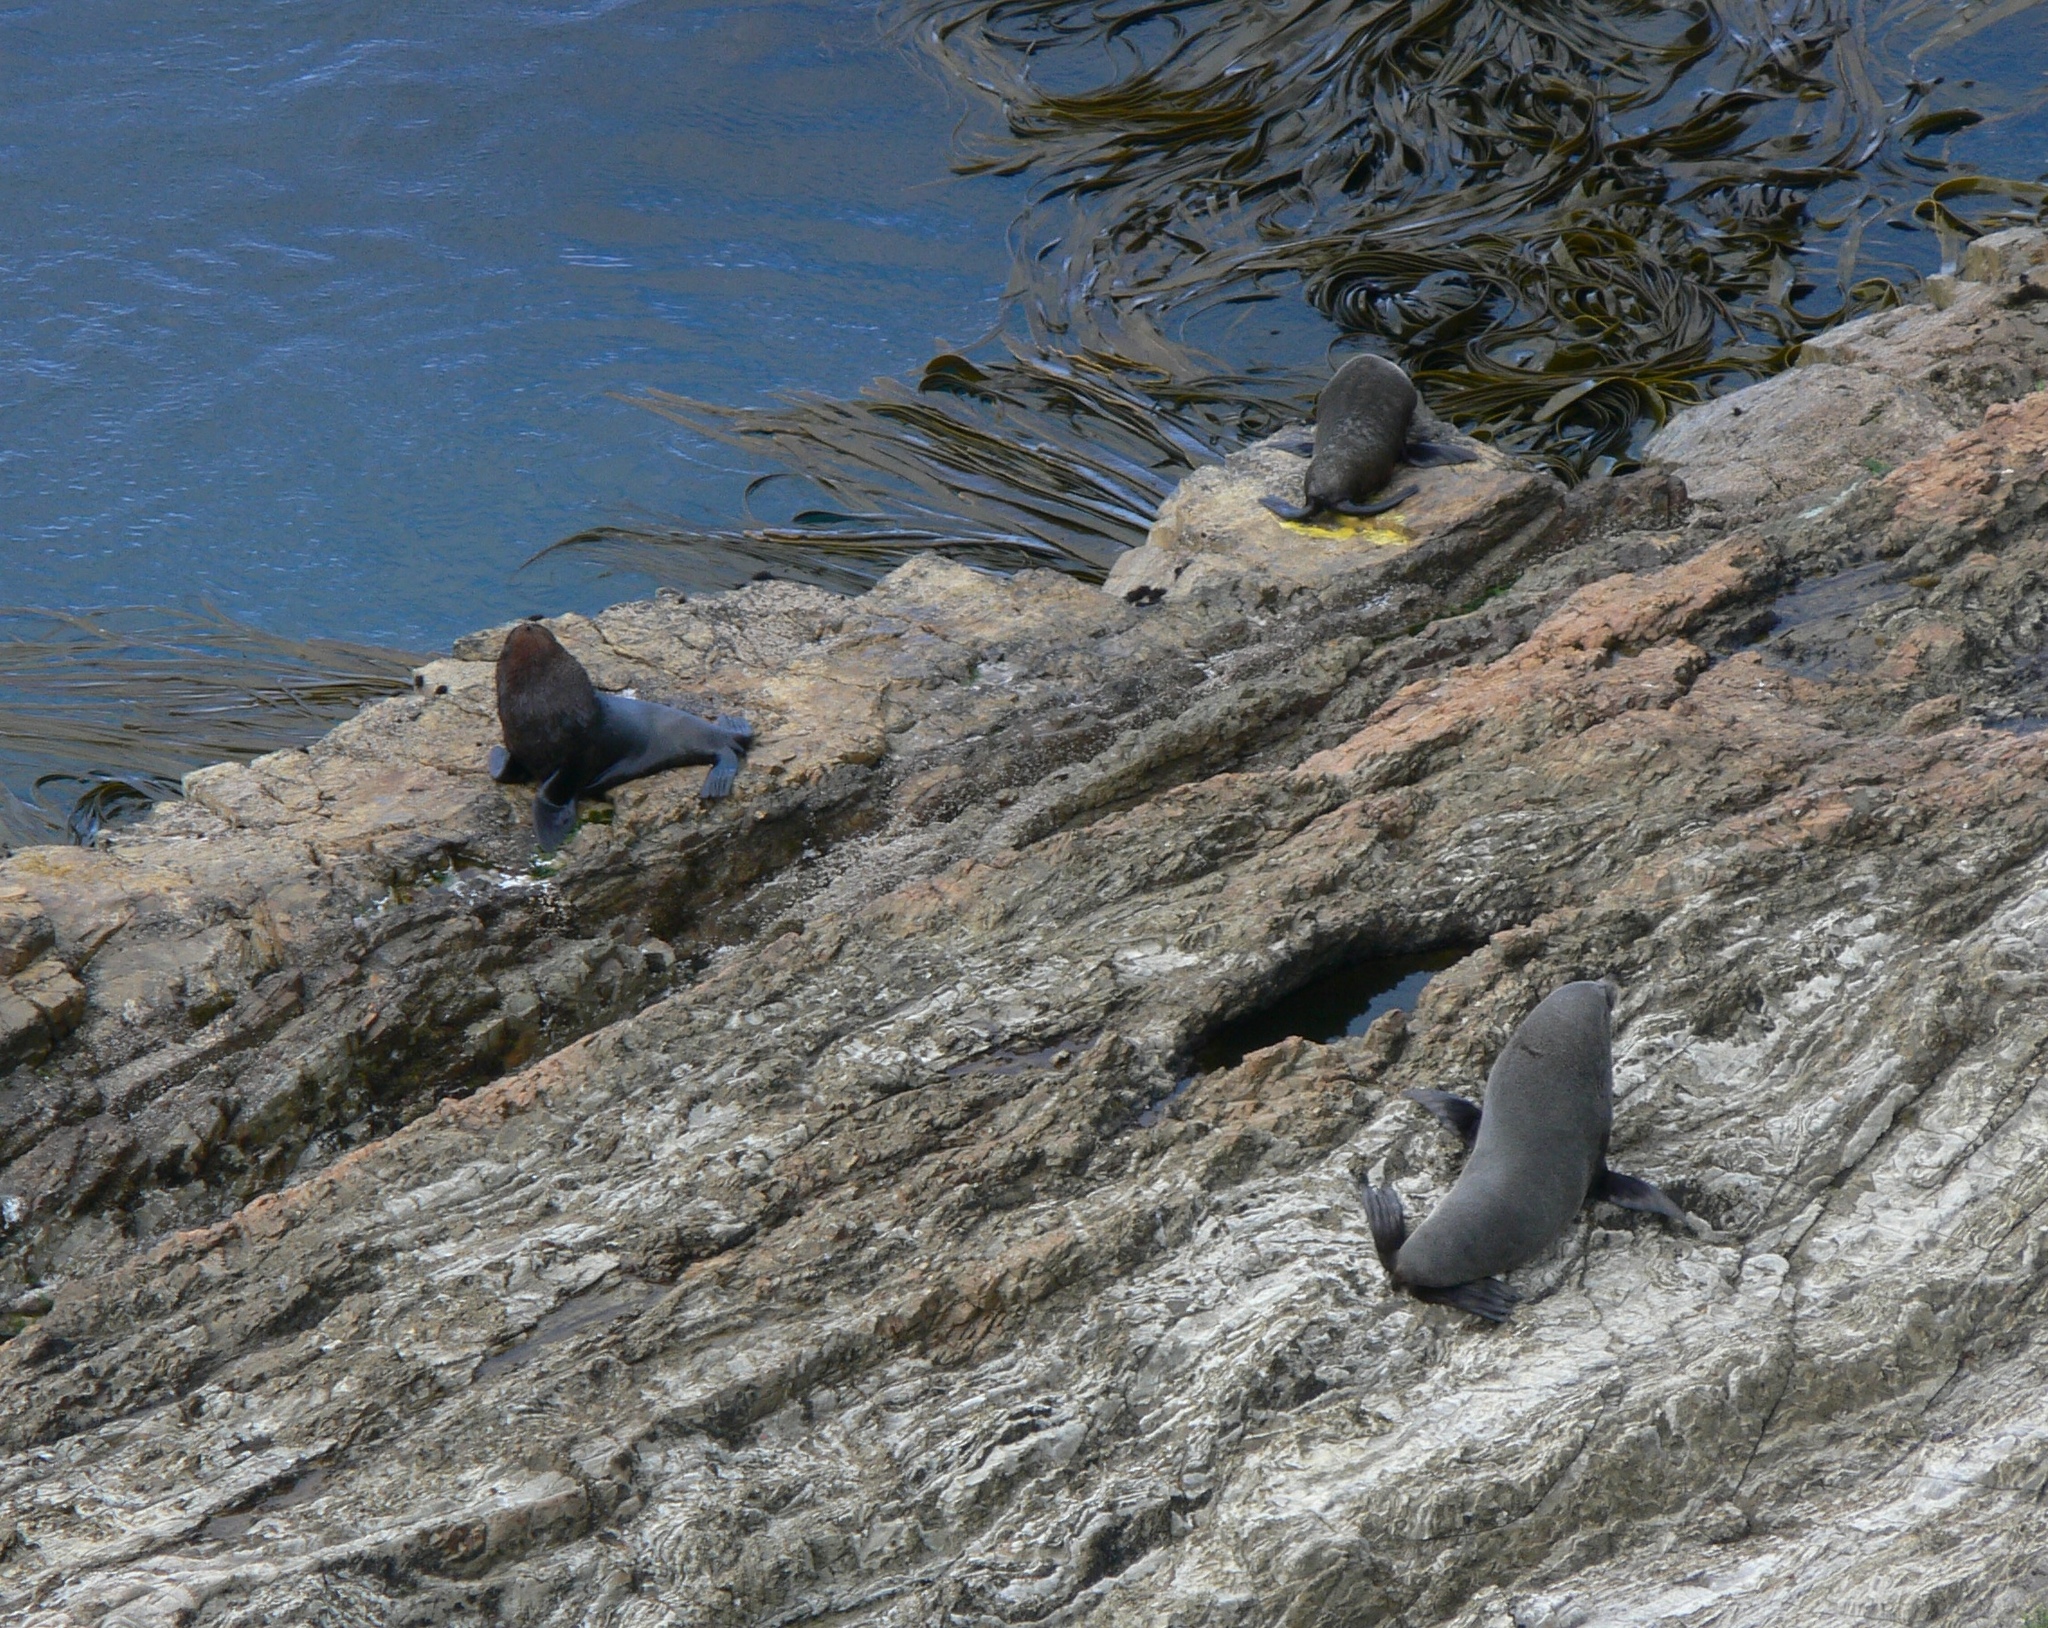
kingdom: Animalia
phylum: Chordata
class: Mammalia
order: Carnivora
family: Otariidae
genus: Arctocephalus
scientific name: Arctocephalus forsteri
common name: New zealand fur seal
